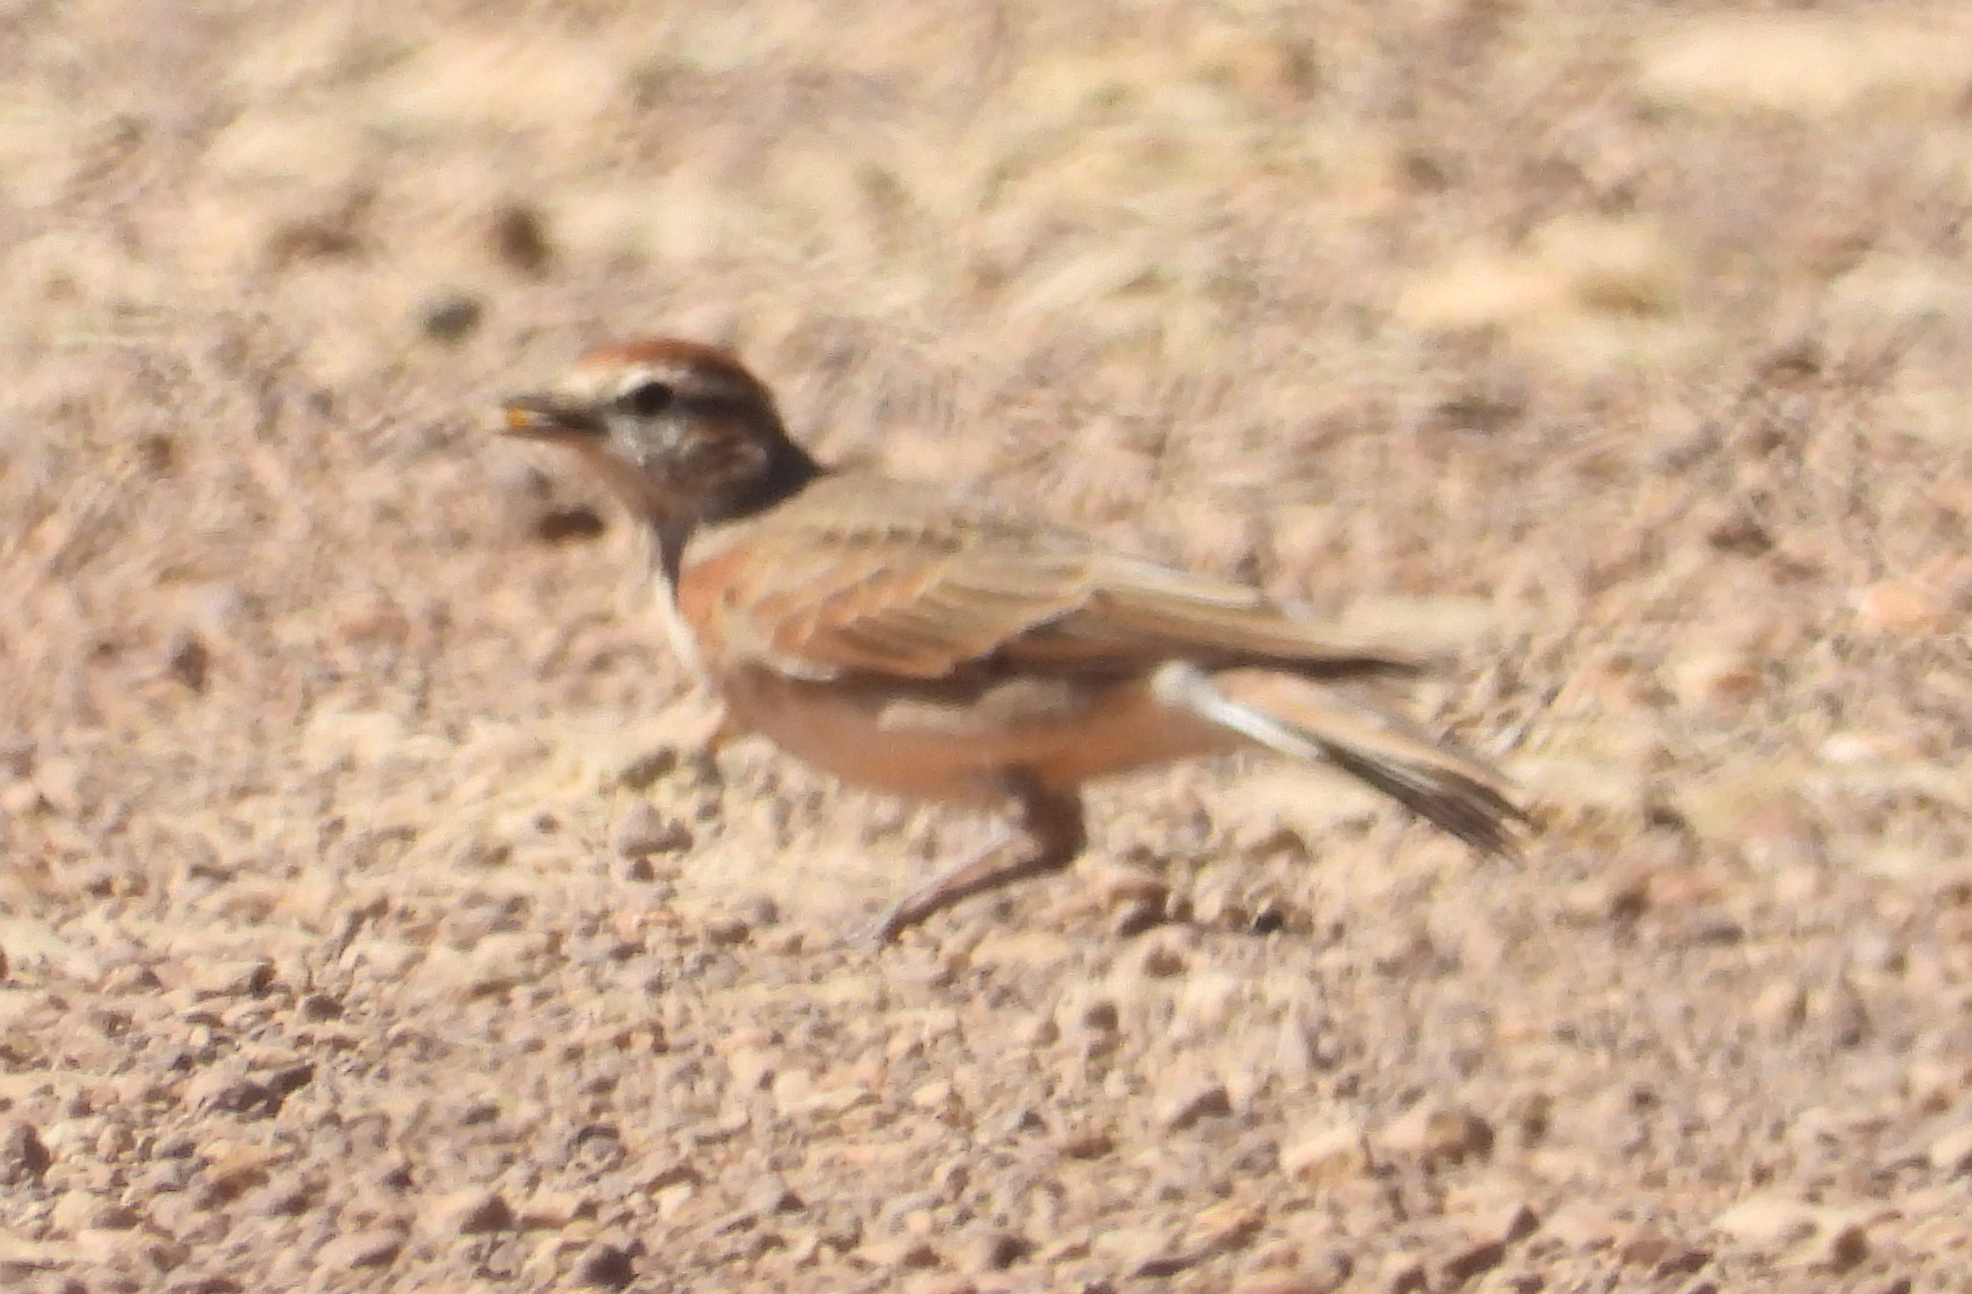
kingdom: Animalia
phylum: Chordata
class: Aves
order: Passeriformes
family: Alaudidae
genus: Calandrella
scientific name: Calandrella cinerea
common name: Red-capped lark
